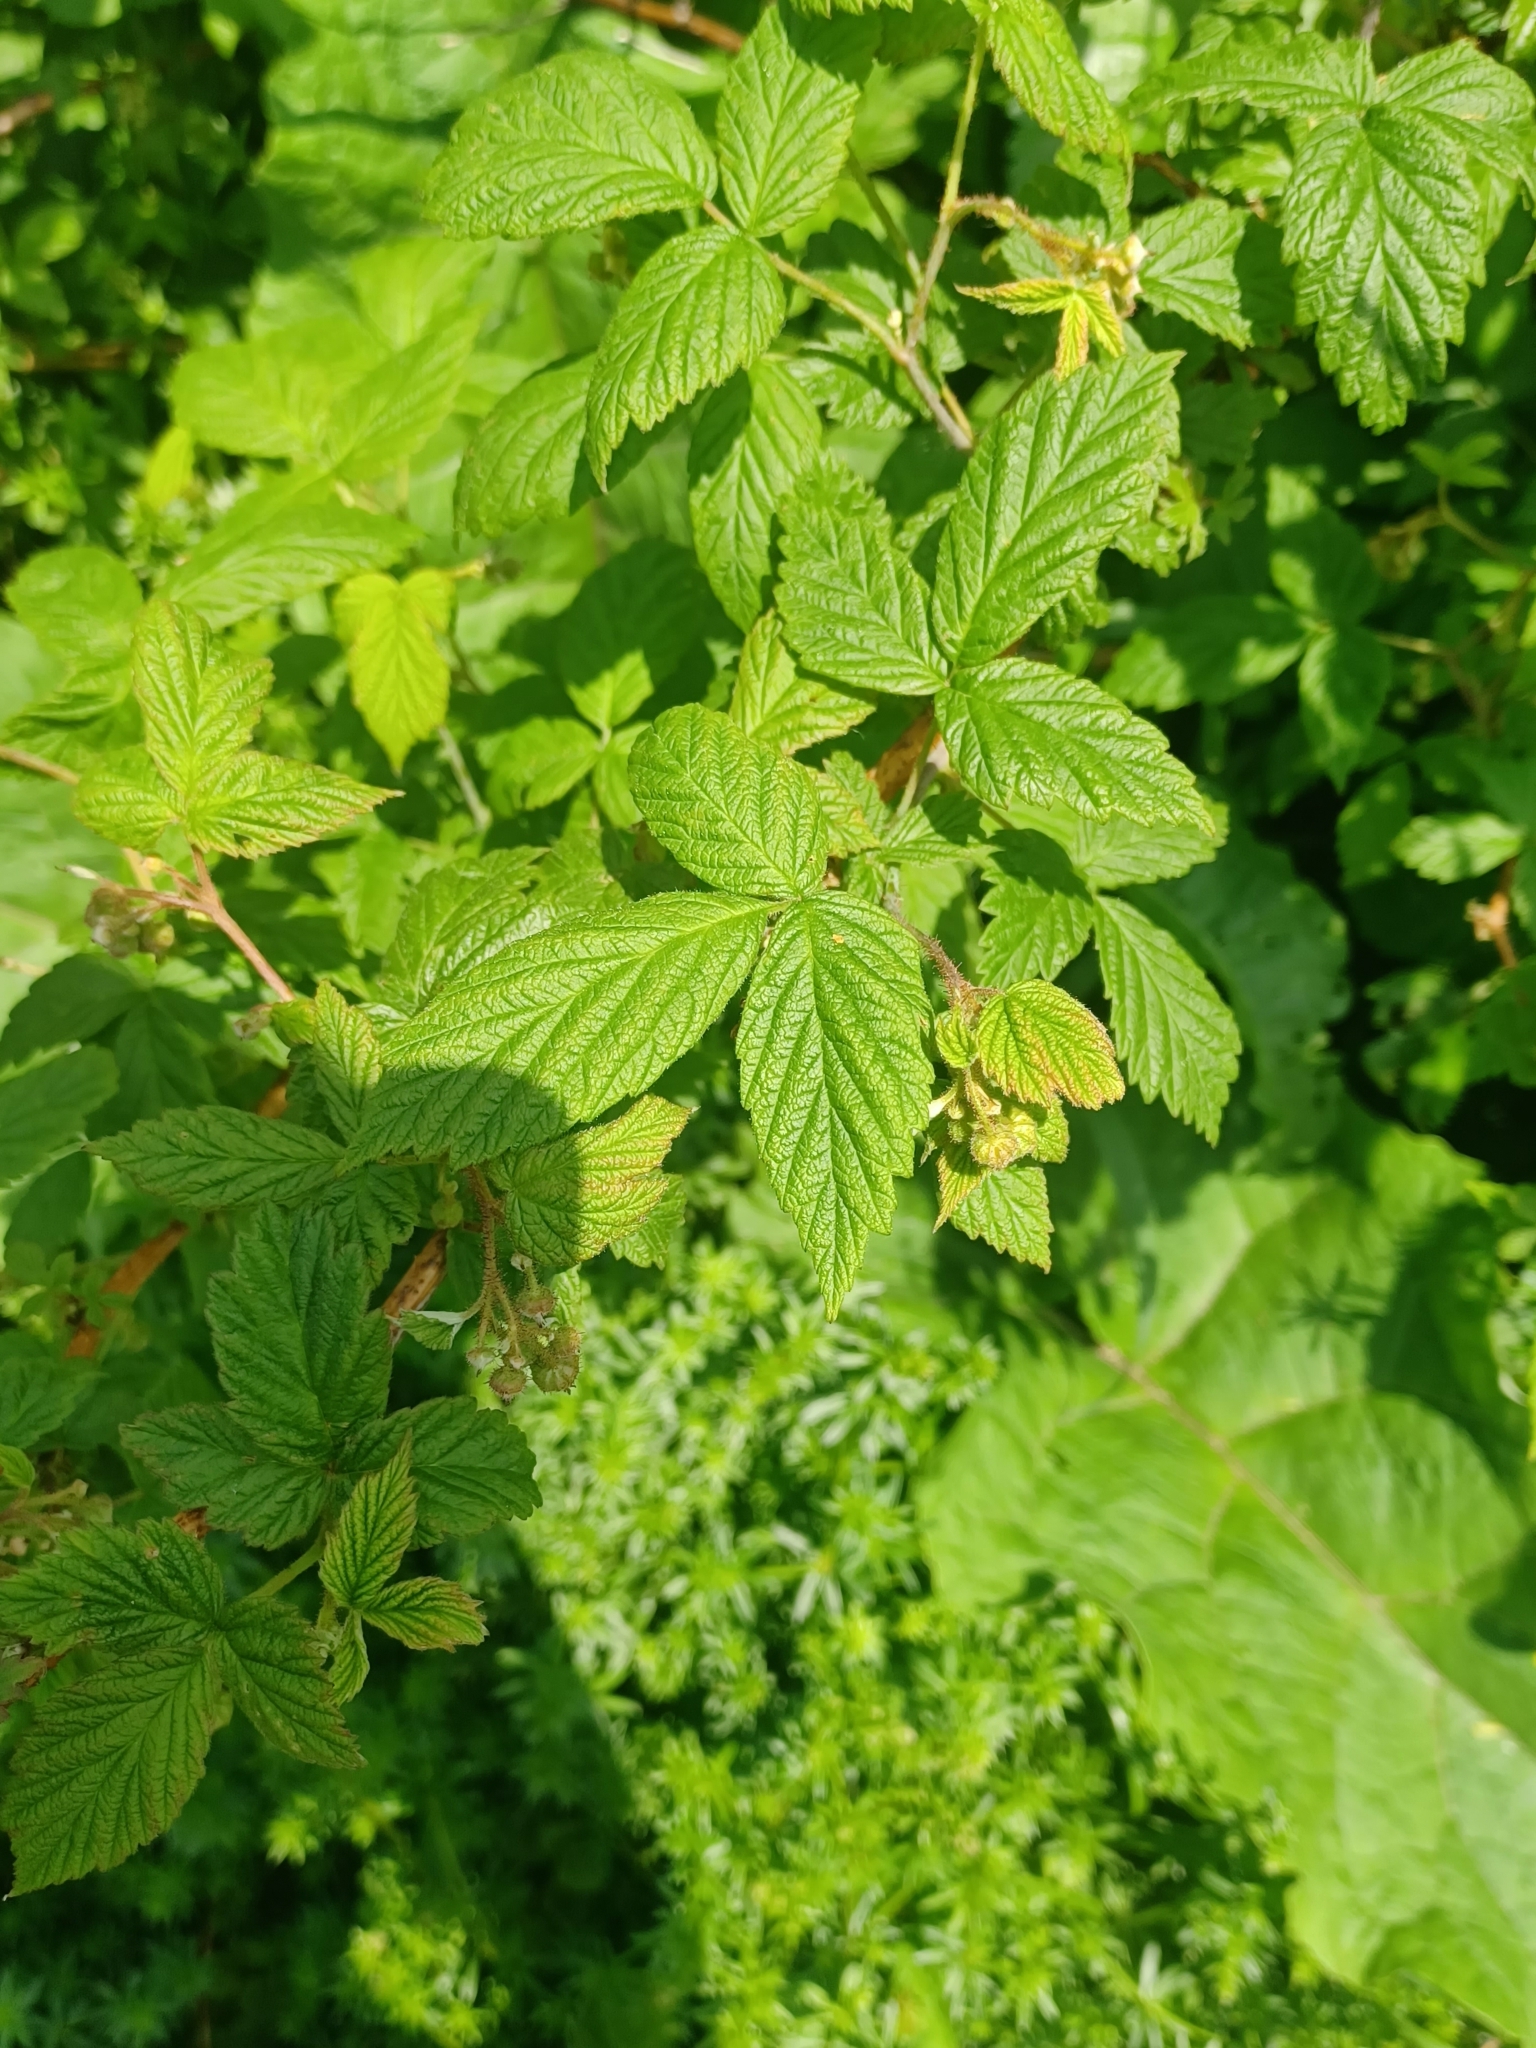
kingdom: Plantae
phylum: Tracheophyta
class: Magnoliopsida
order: Rosales
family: Rosaceae
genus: Rubus
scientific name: Rubus idaeus
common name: Raspberry
